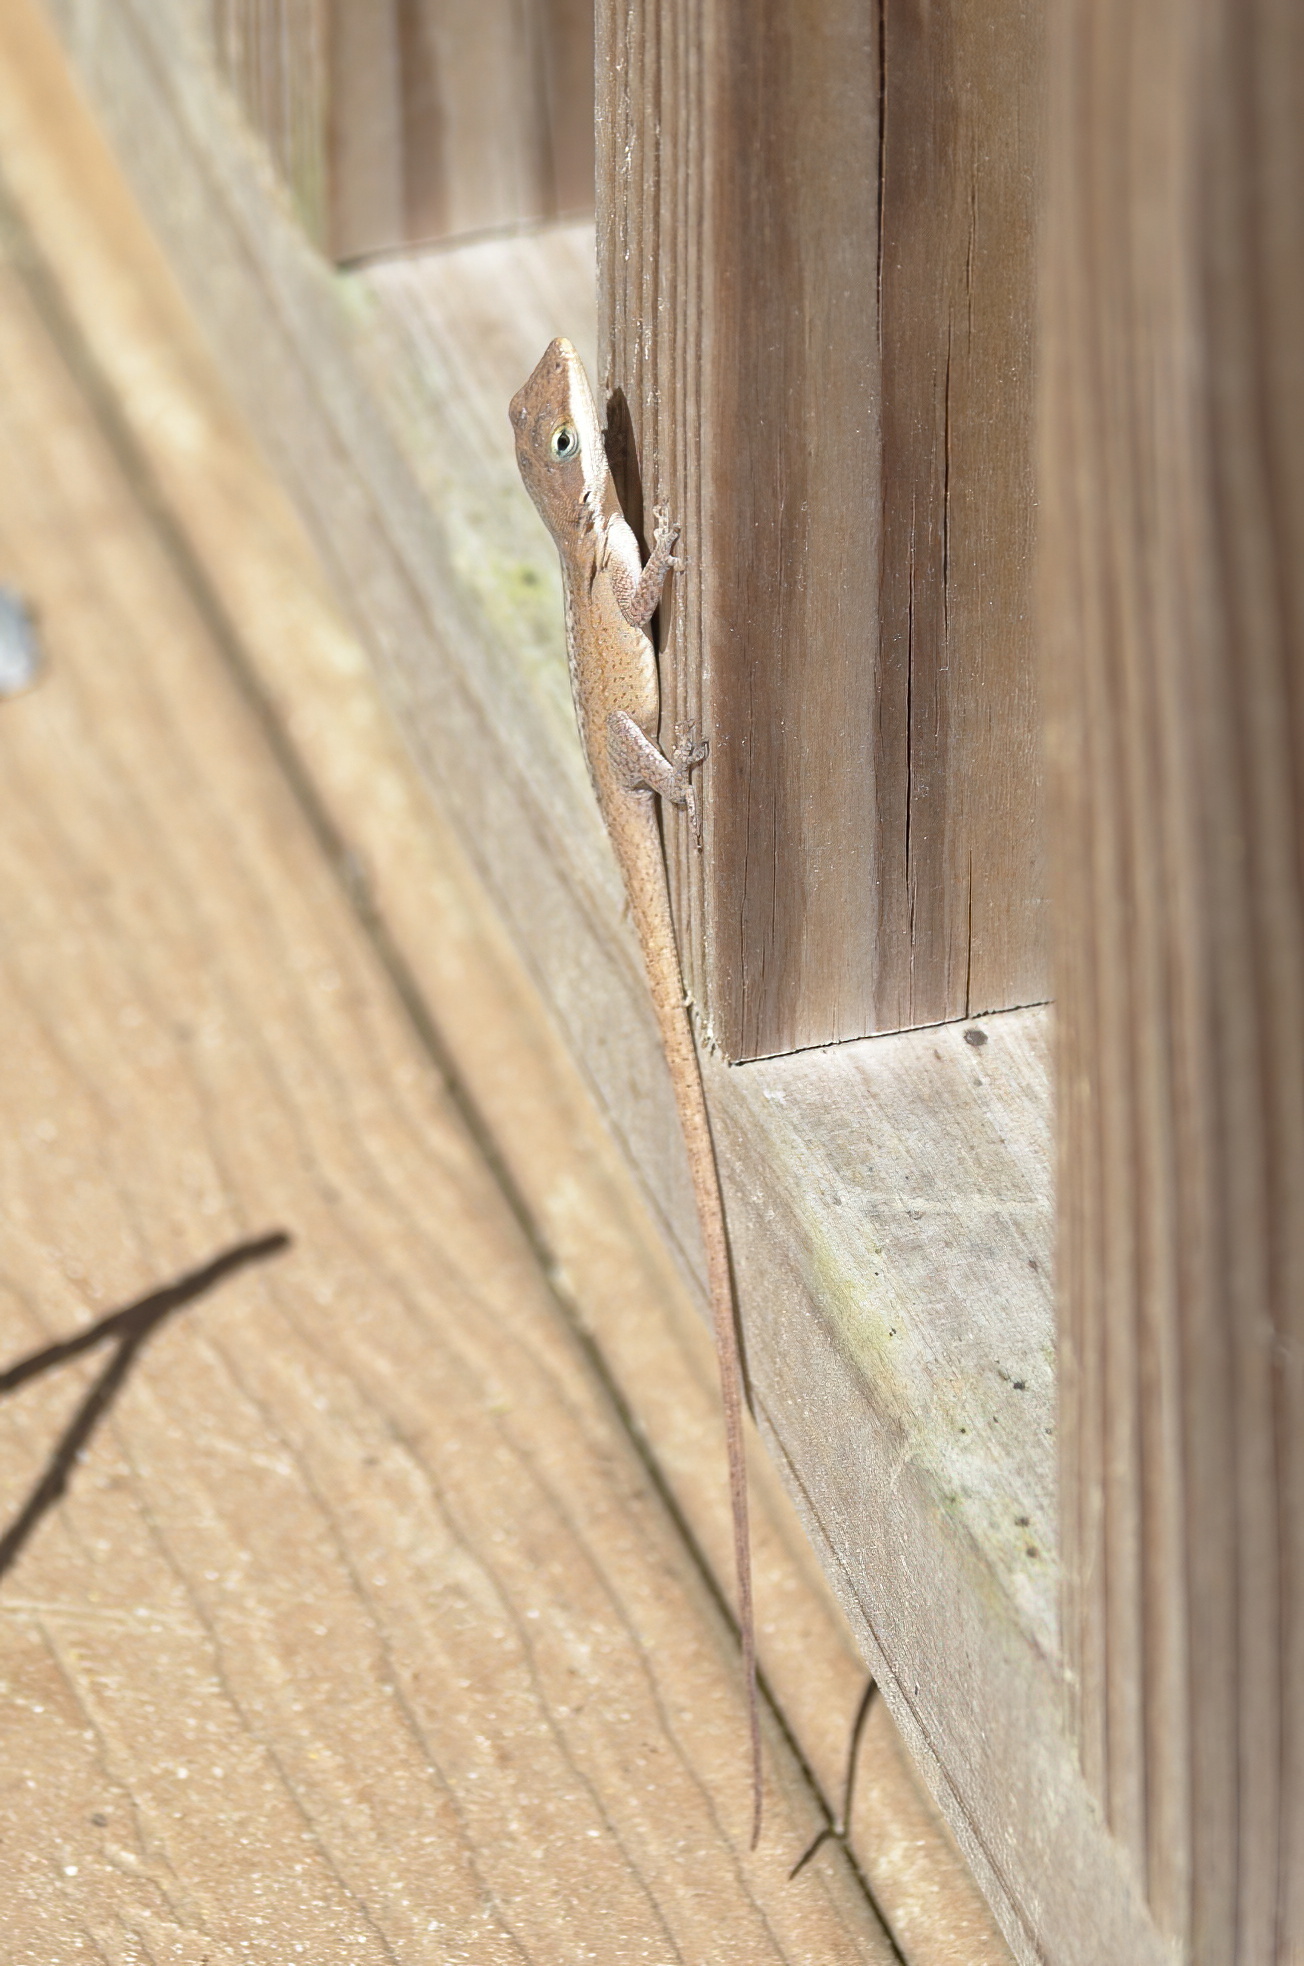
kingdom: Animalia
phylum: Chordata
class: Squamata
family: Dactyloidae
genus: Anolis
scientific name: Anolis carolinensis
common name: Green anole
